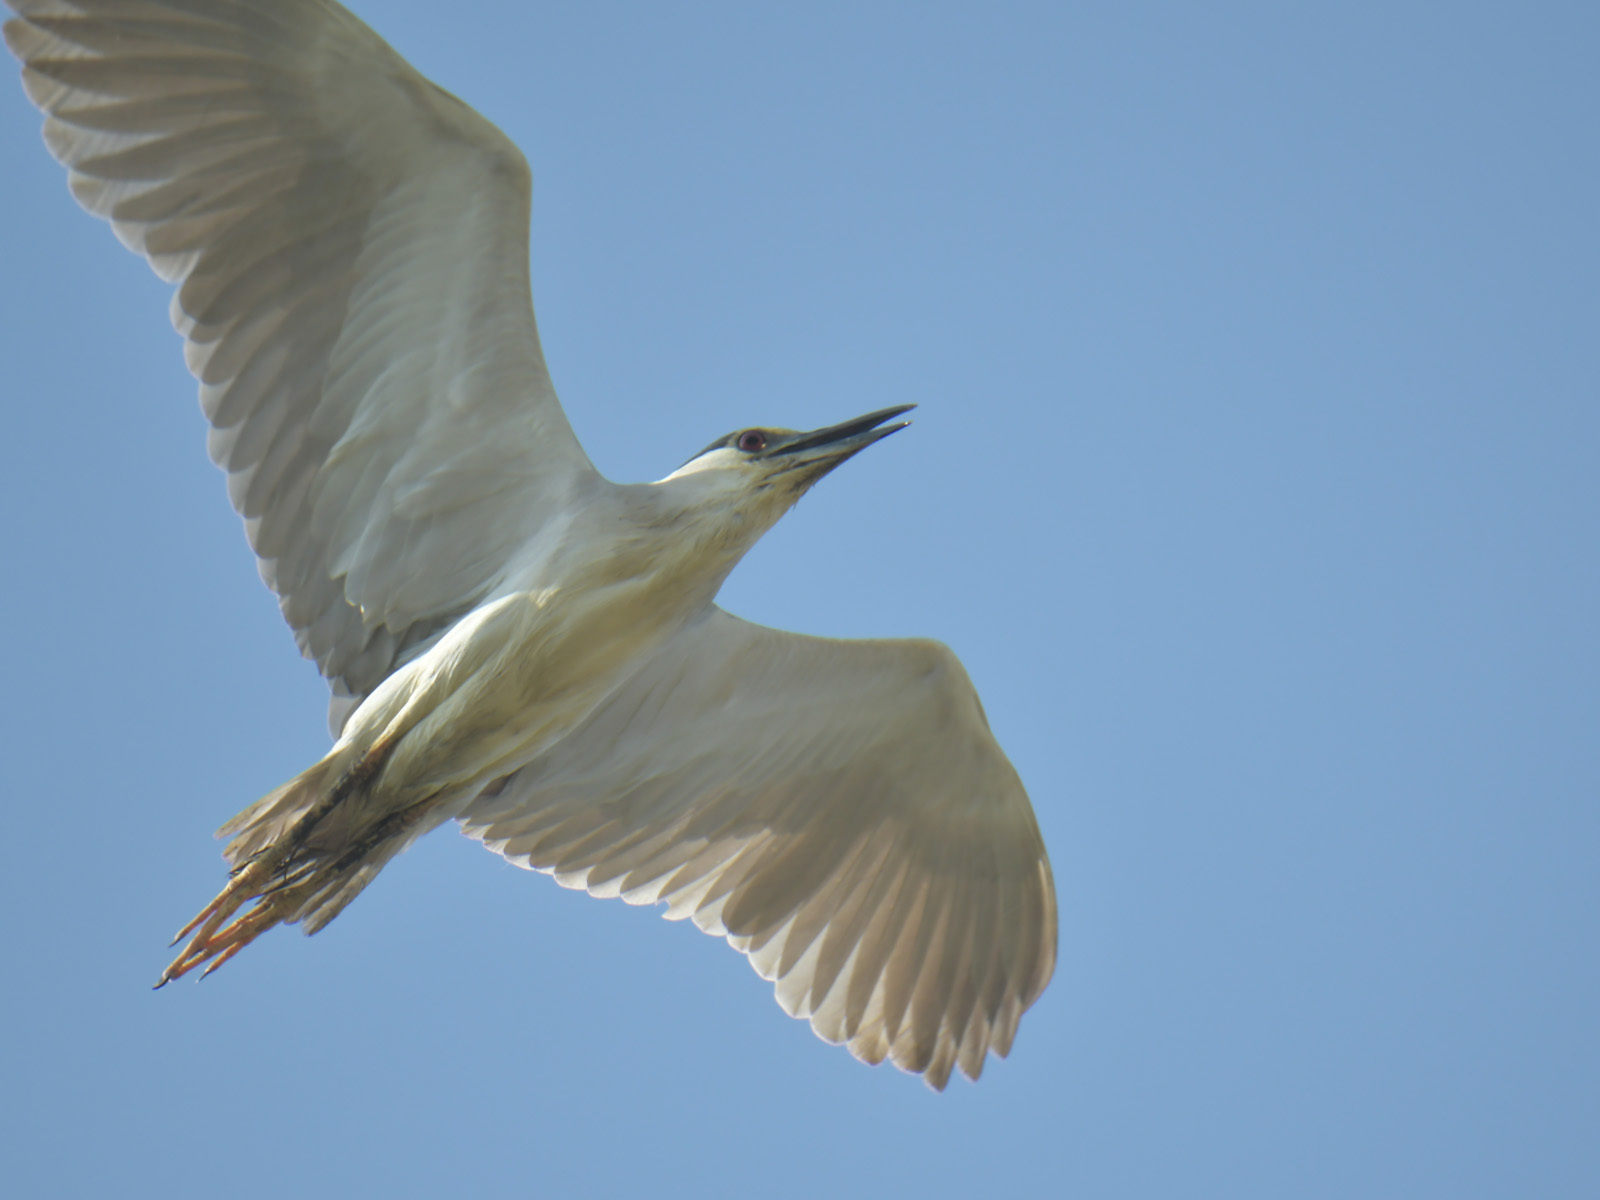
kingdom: Animalia
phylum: Chordata
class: Aves
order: Pelecaniformes
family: Ardeidae
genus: Nycticorax
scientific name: Nycticorax nycticorax
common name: Black-crowned night heron
